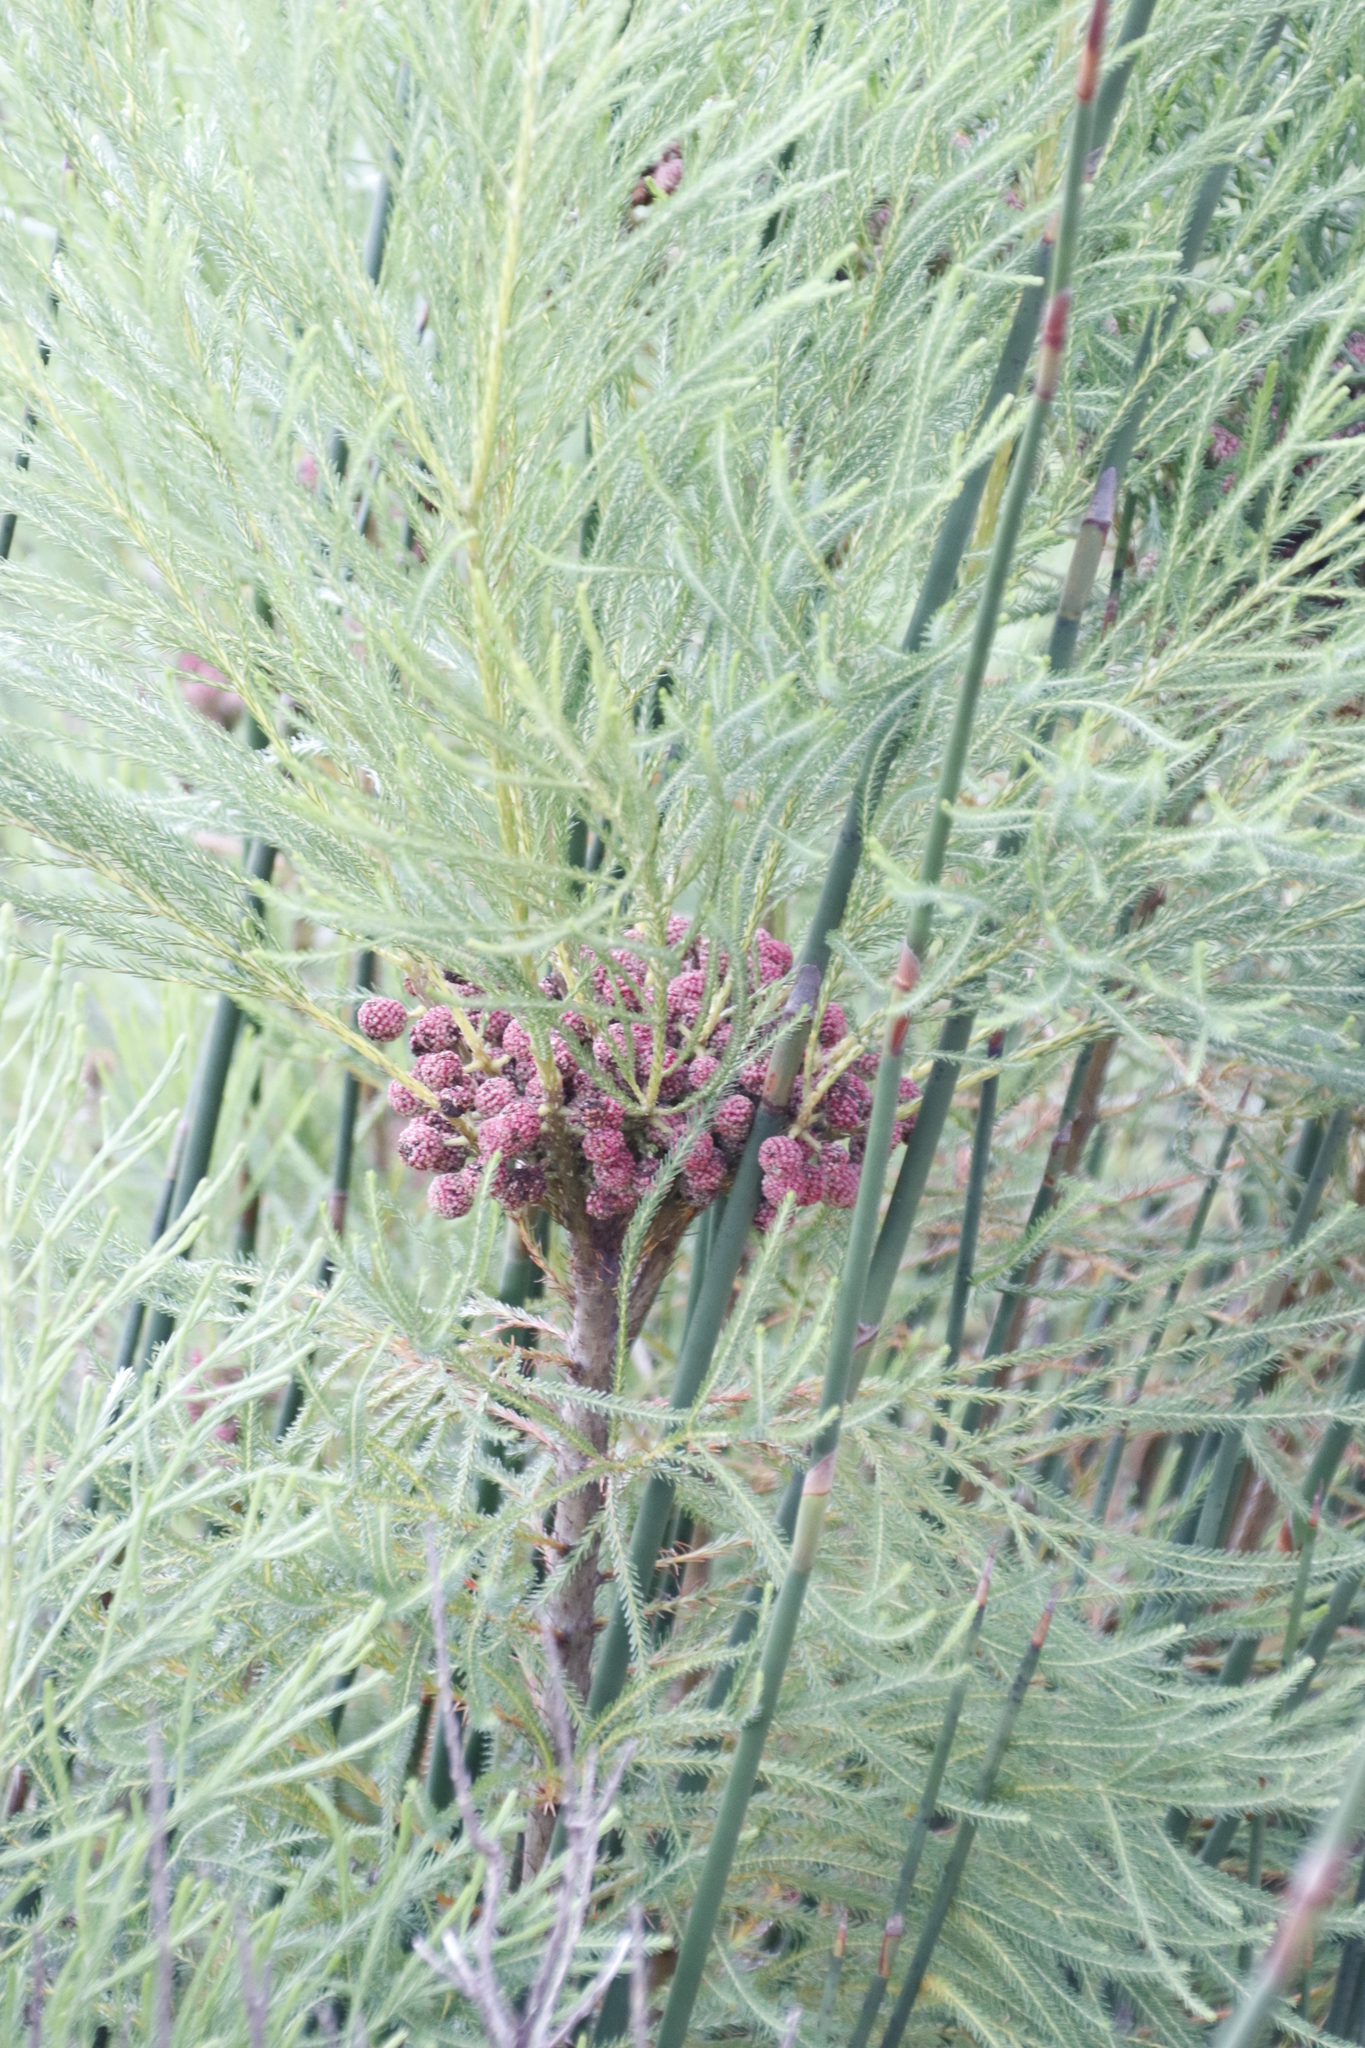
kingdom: Plantae
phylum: Tracheophyta
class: Magnoliopsida
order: Bruniales
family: Bruniaceae
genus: Berzelia
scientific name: Berzelia lanuginosa
